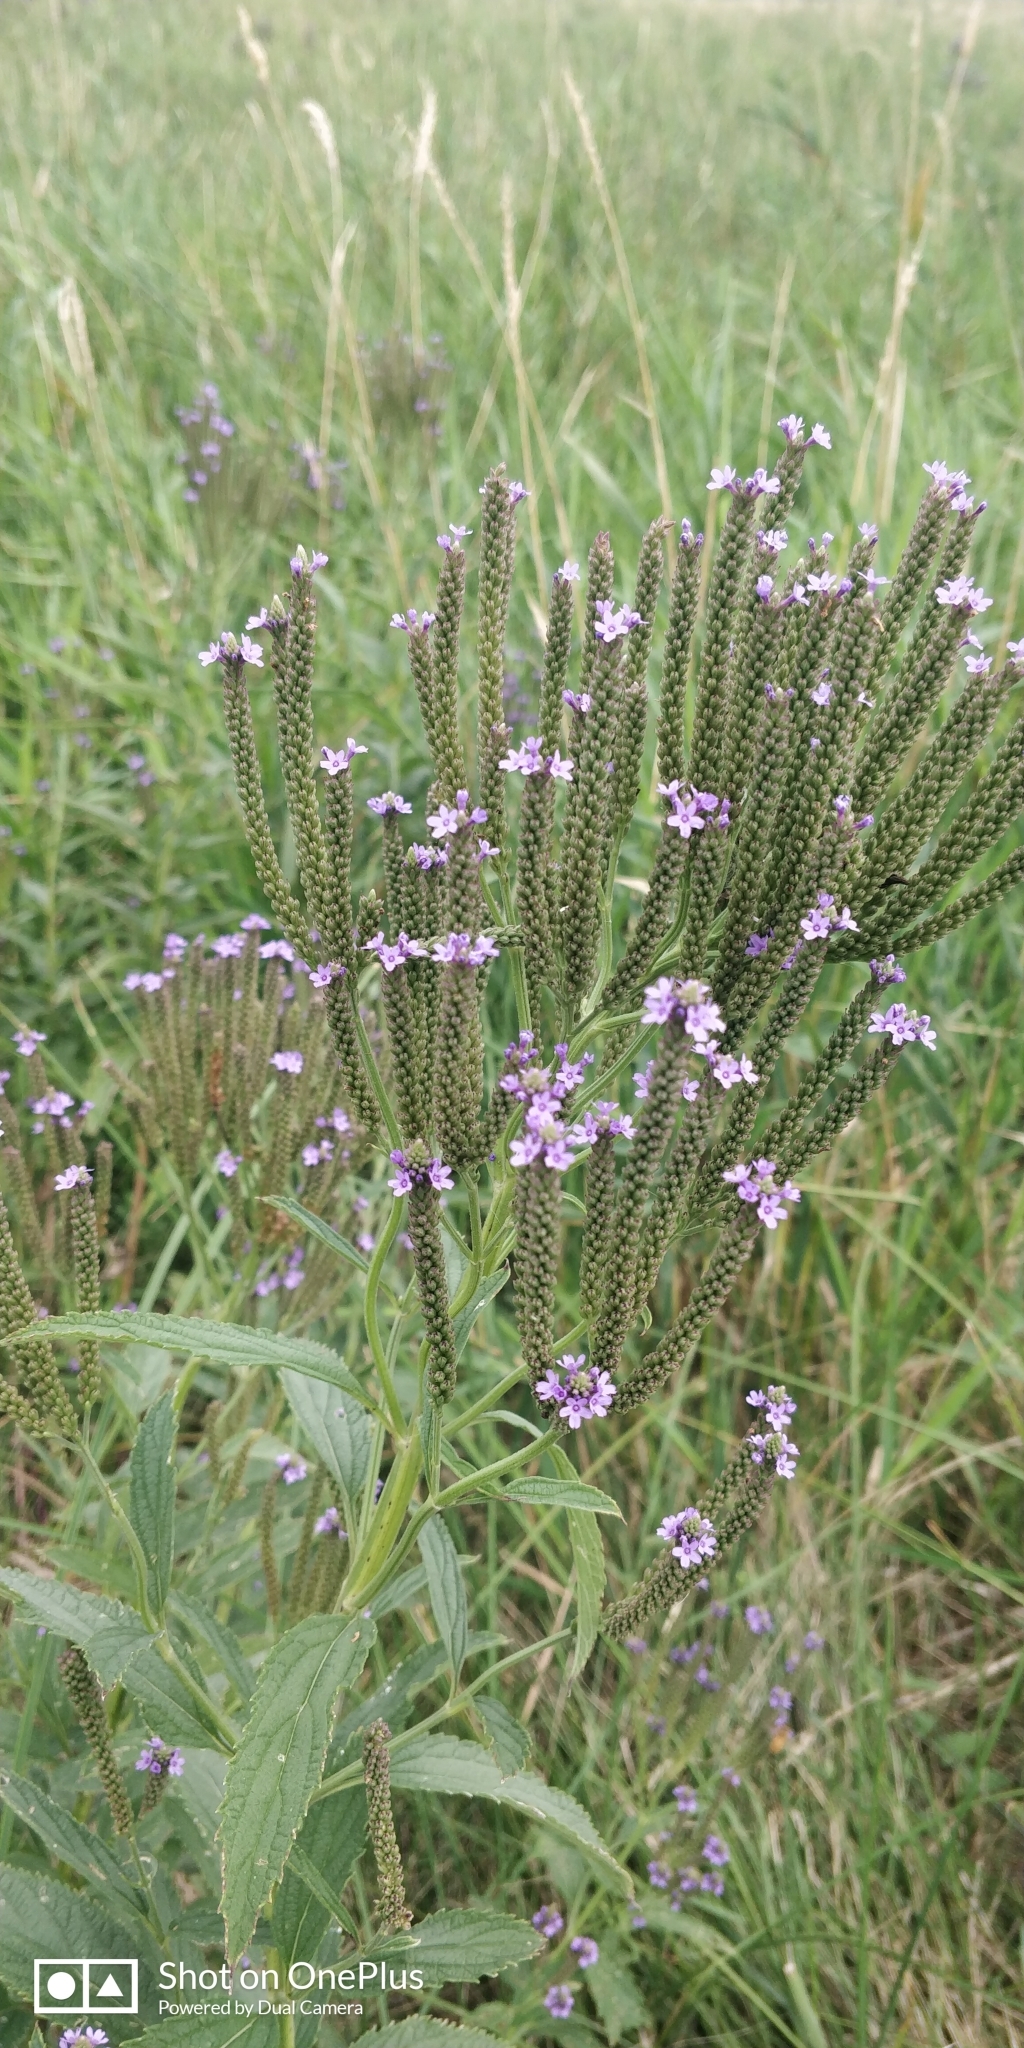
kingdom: Plantae
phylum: Tracheophyta
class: Magnoliopsida
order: Lamiales
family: Verbenaceae
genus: Verbena
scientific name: Verbena hastata
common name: American blue vervain
